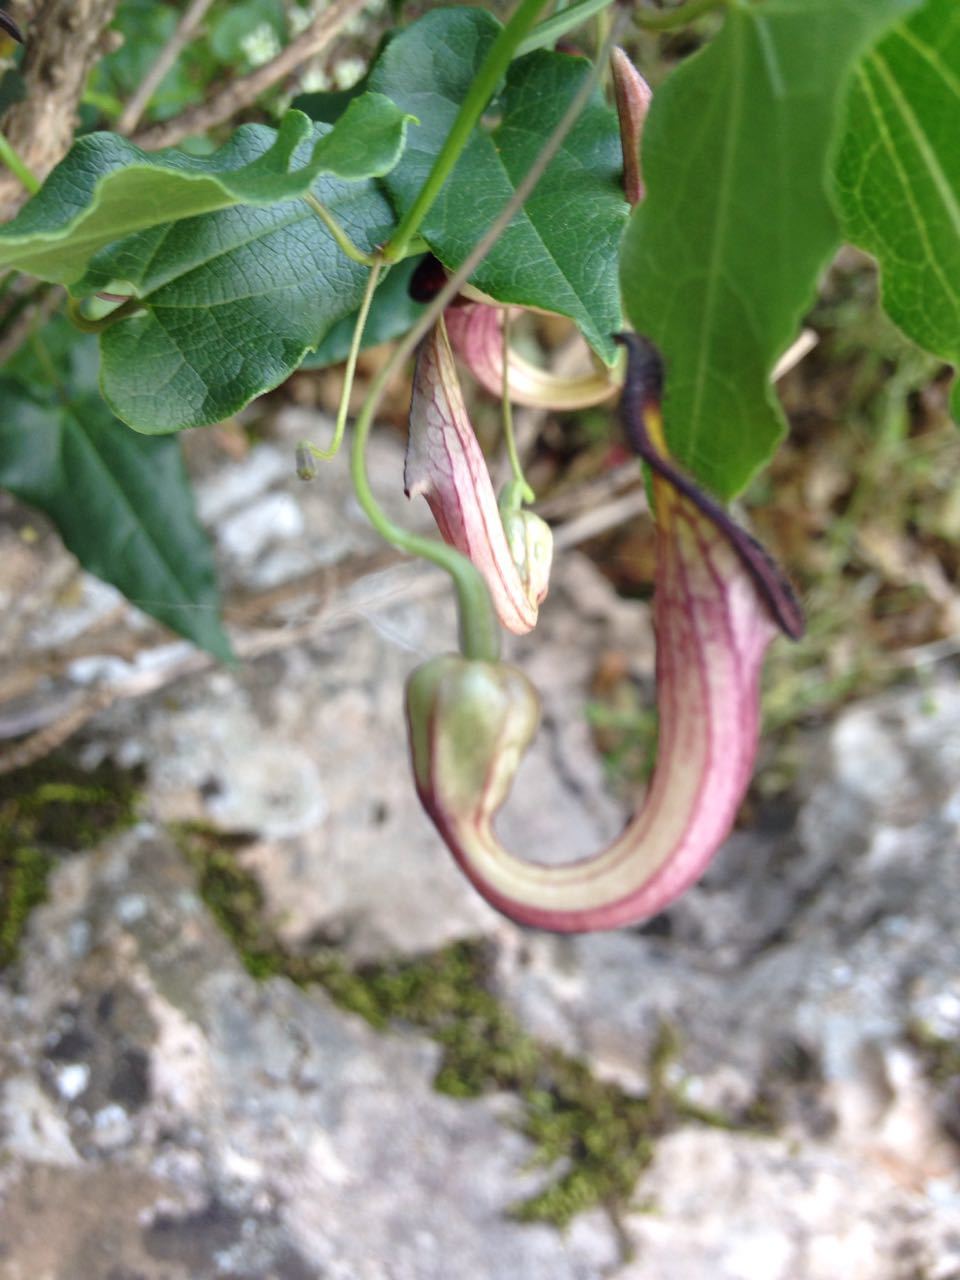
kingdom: Plantae
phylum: Tracheophyta
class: Magnoliopsida
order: Piperales
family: Aristolochiaceae
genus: Aristolochia
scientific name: Aristolochia sempervirens
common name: Long birthwort
